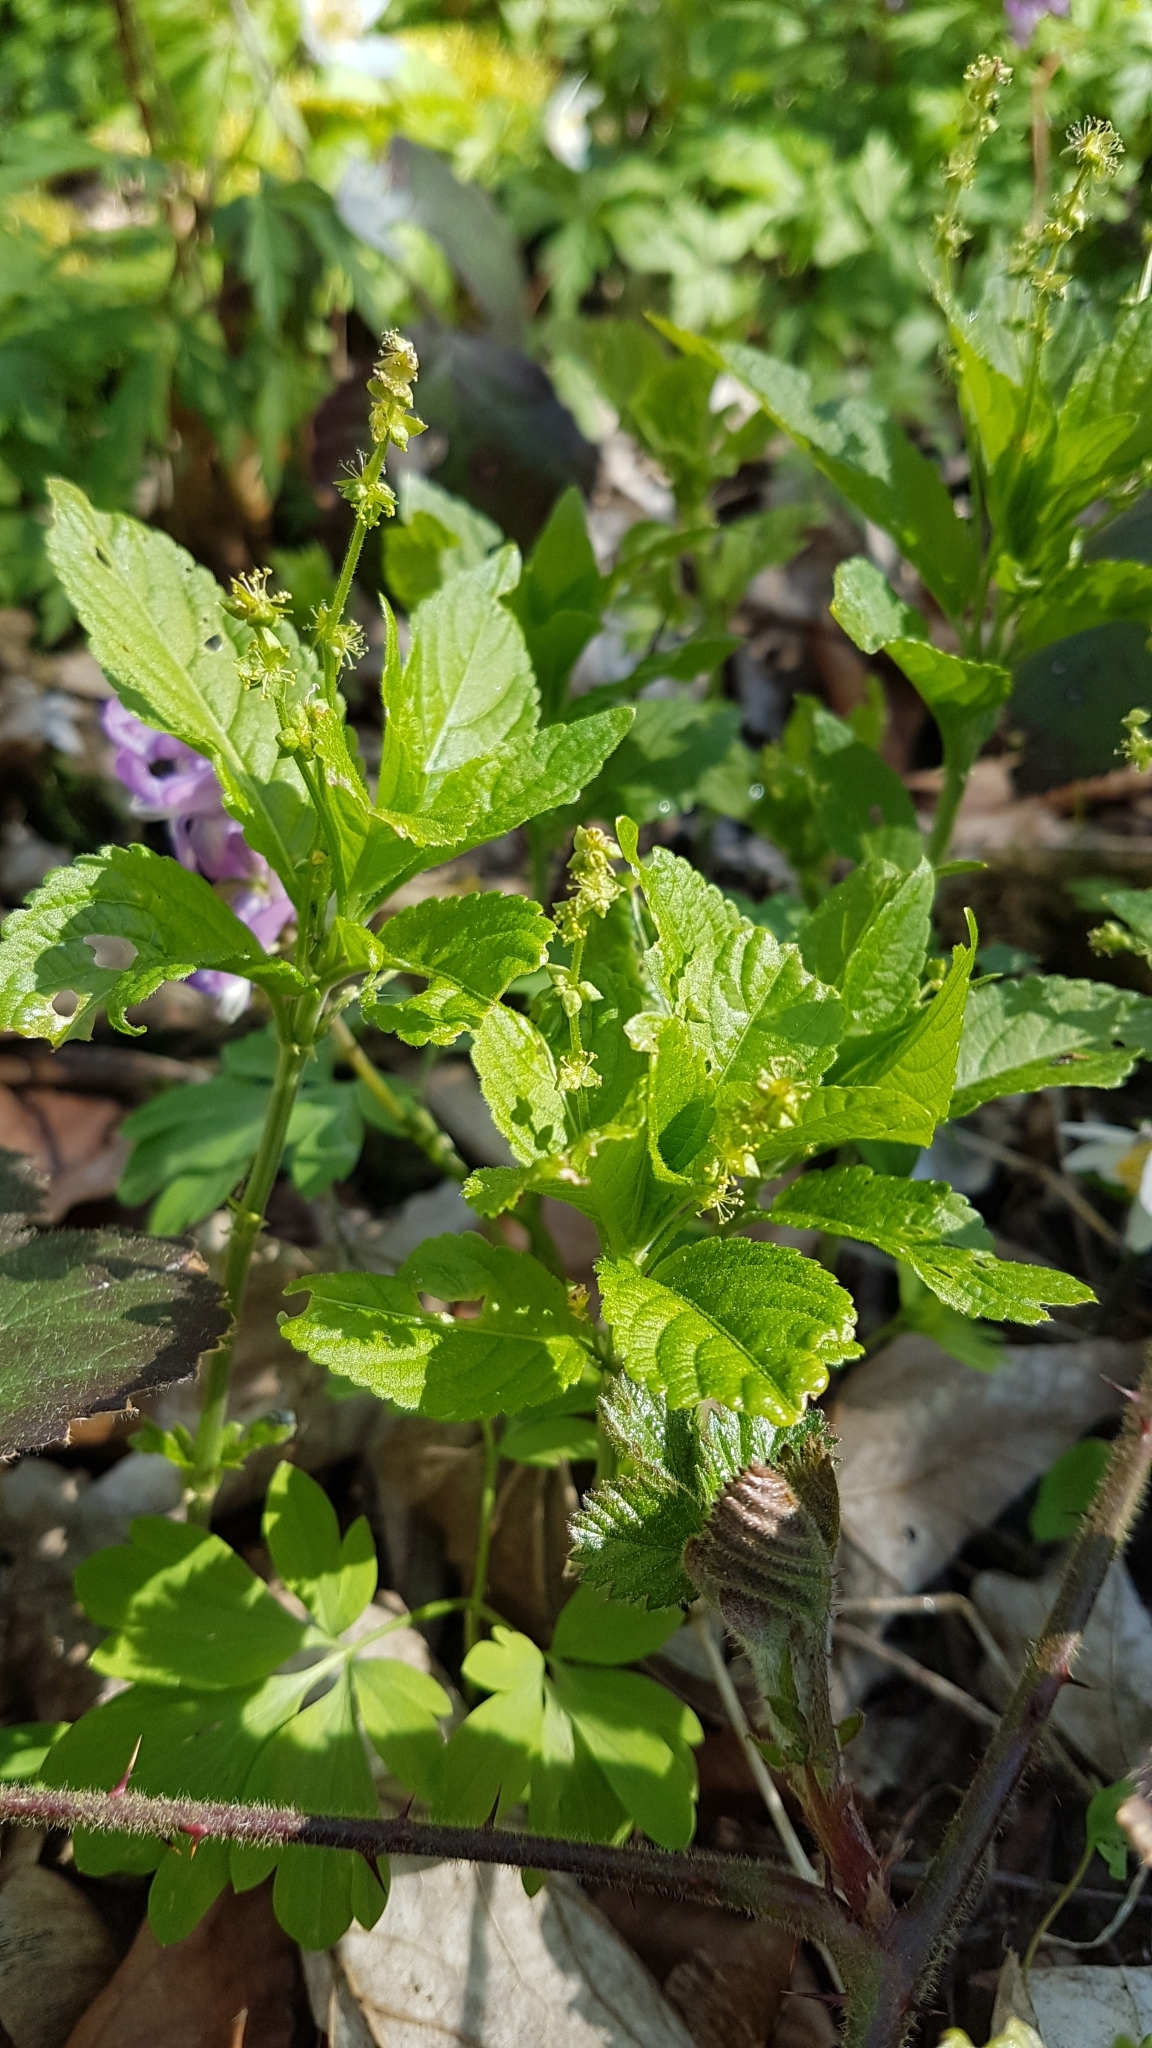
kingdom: Plantae
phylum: Tracheophyta
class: Magnoliopsida
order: Malpighiales
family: Euphorbiaceae
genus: Mercurialis
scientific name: Mercurialis perennis
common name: Dog mercury
